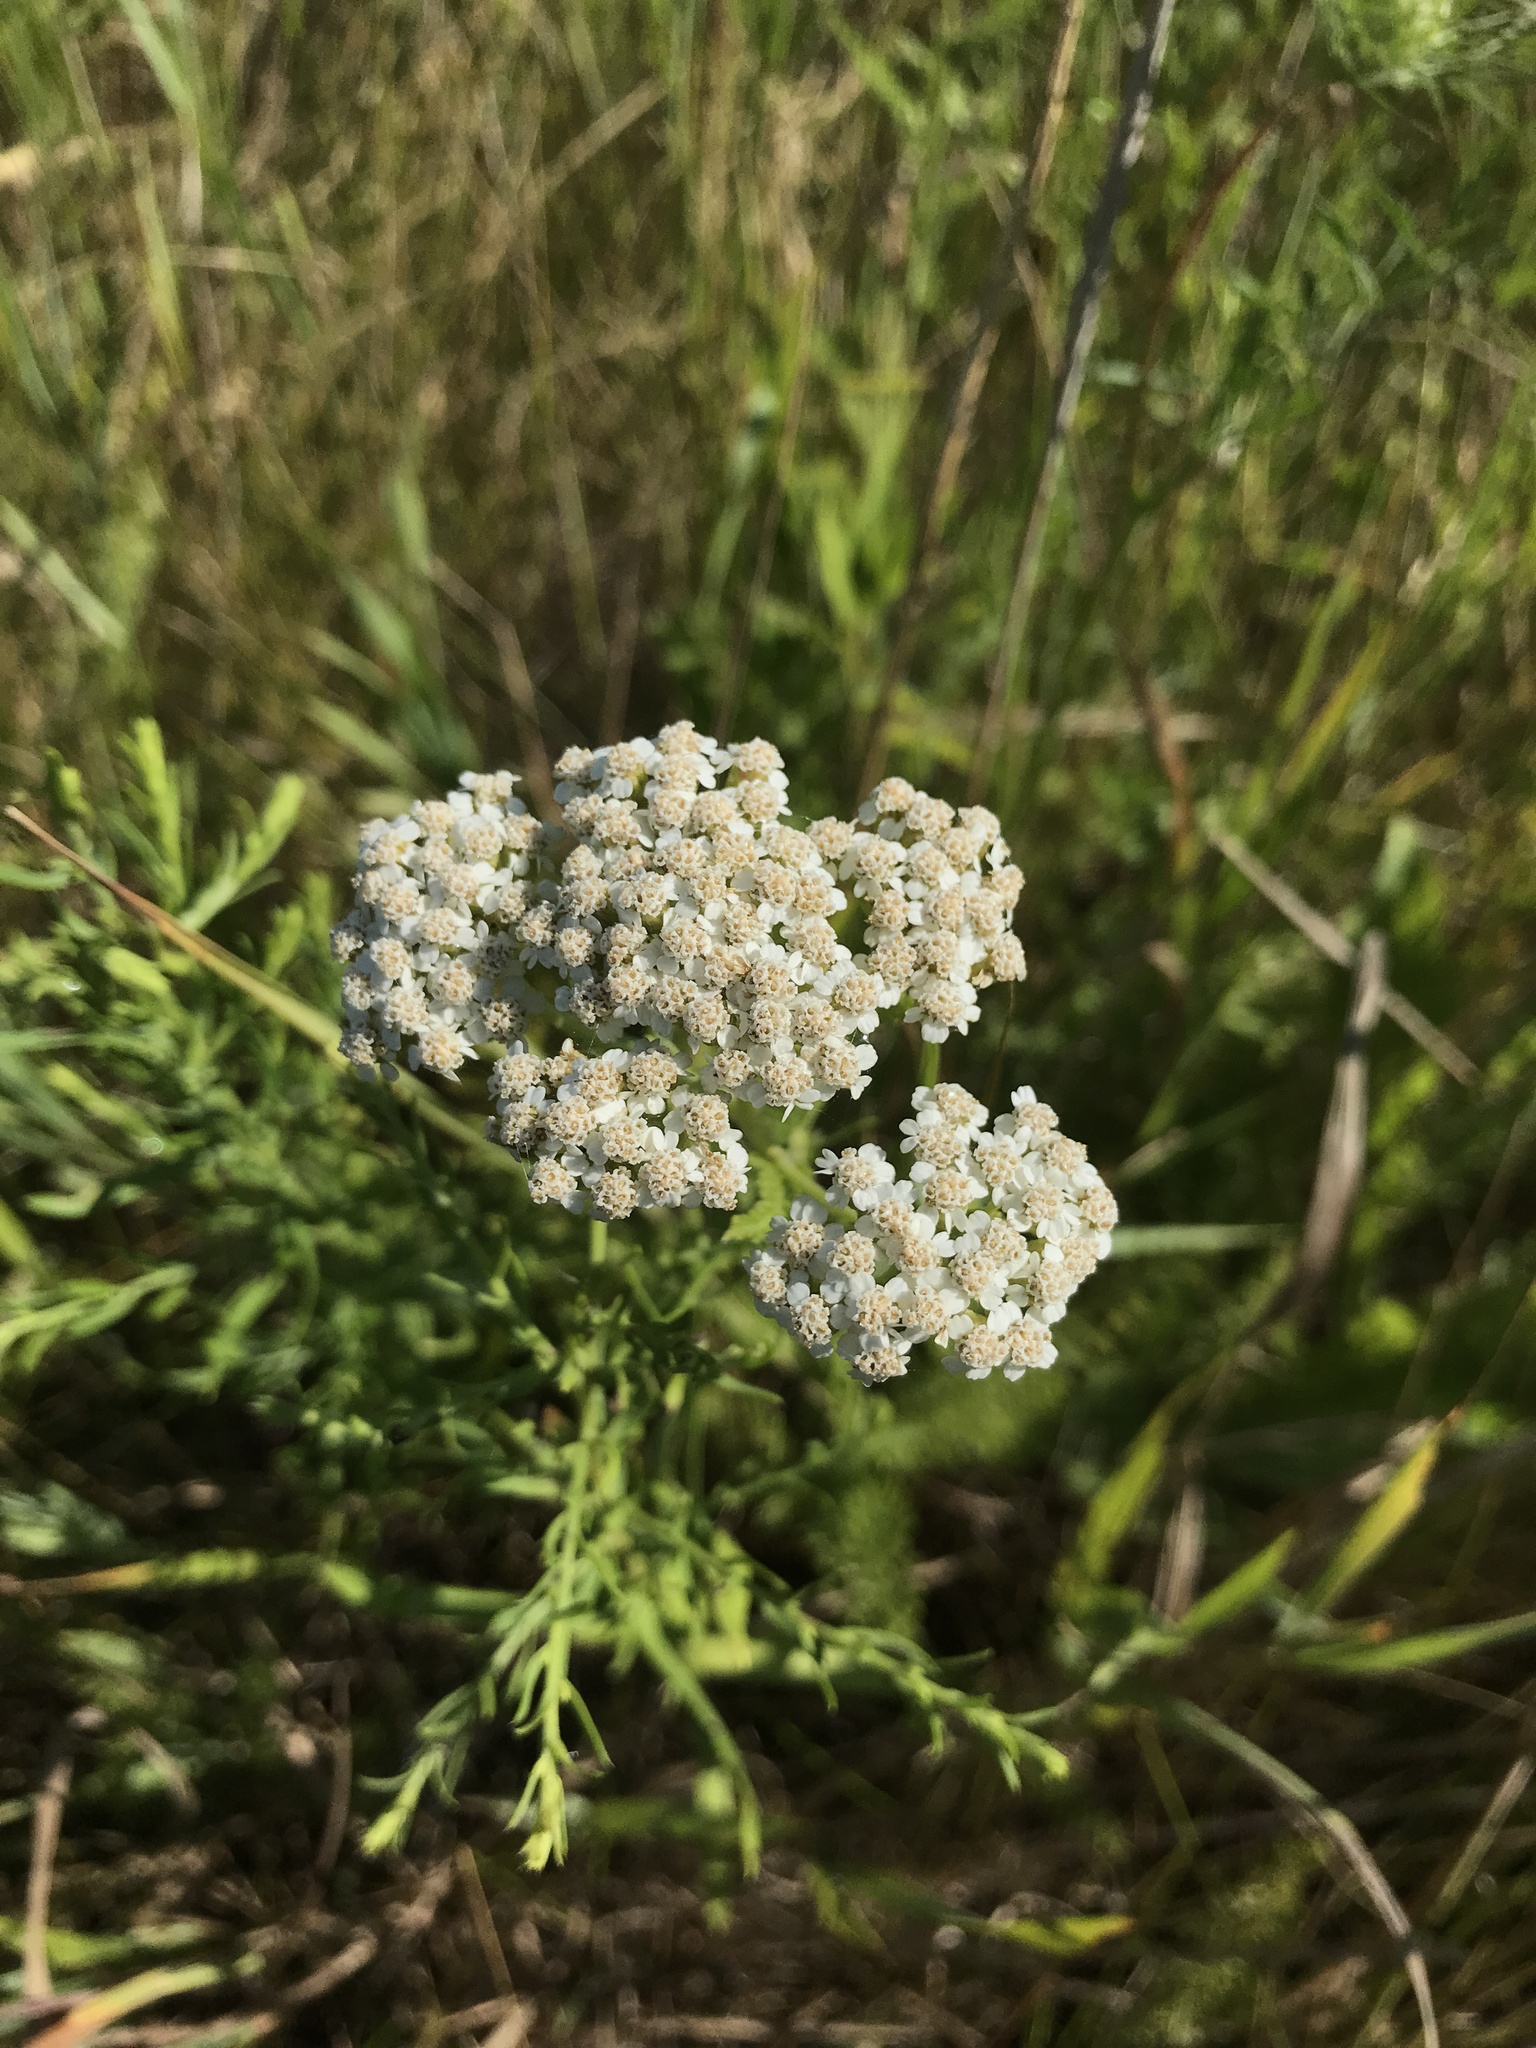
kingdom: Plantae
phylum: Tracheophyta
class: Magnoliopsida
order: Asterales
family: Asteraceae
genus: Achillea
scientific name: Achillea millefolium
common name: Yarrow
